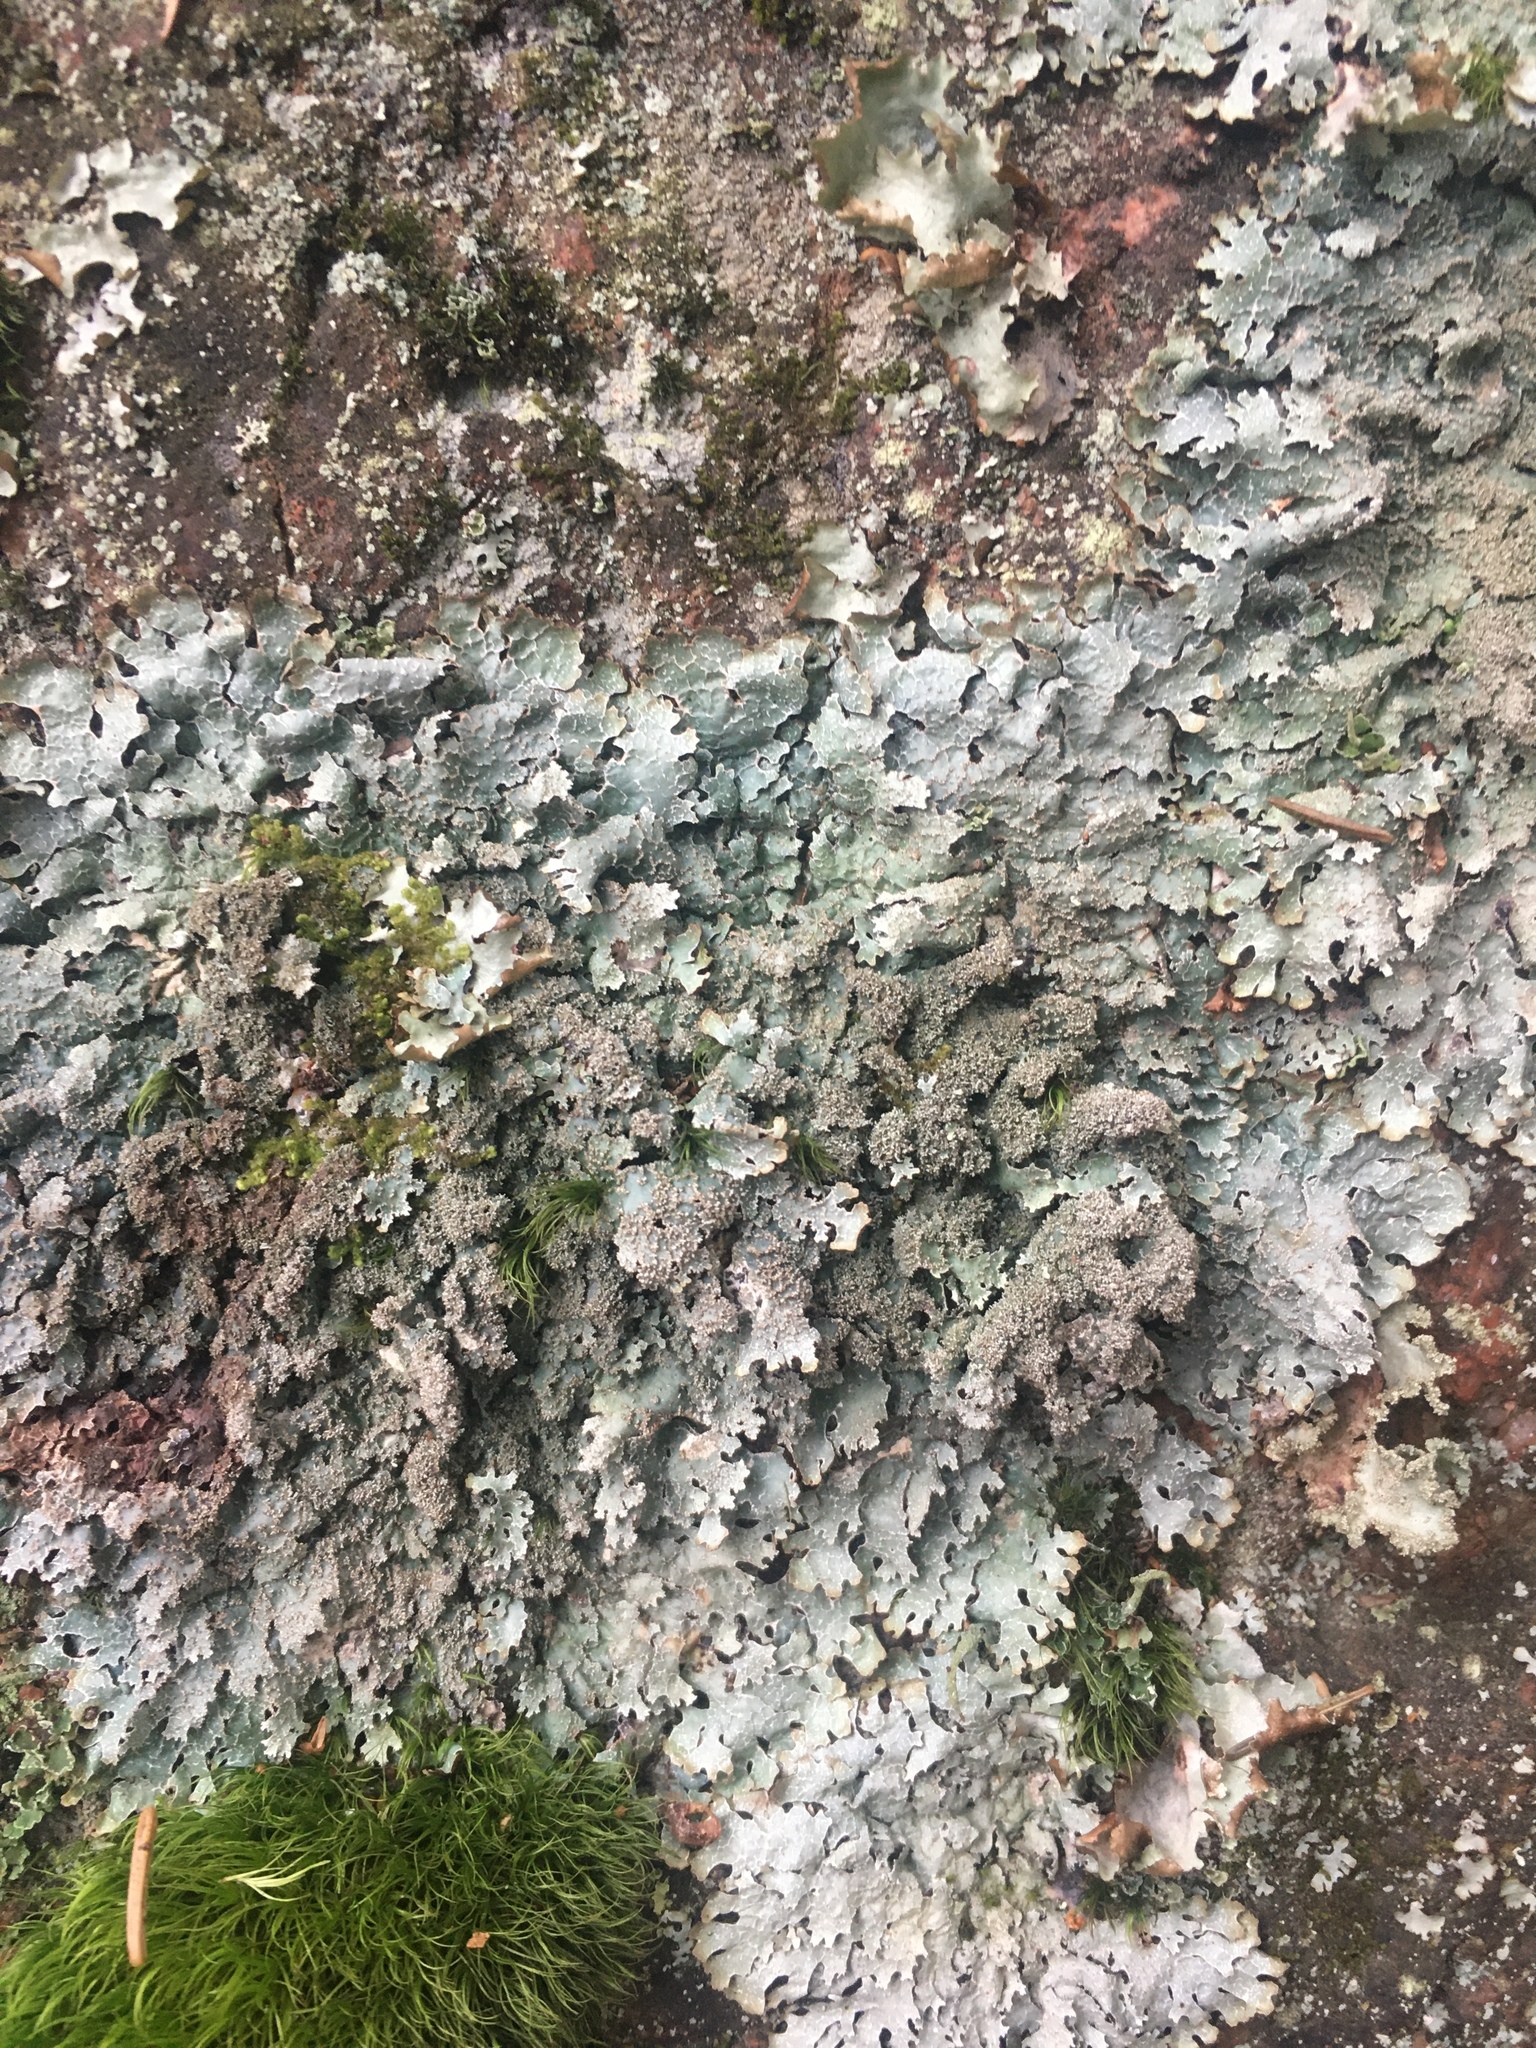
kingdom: Fungi
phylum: Ascomycota
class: Lecanoromycetes
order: Lecanorales
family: Parmeliaceae
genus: Parmelia
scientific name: Parmelia ernstiae
